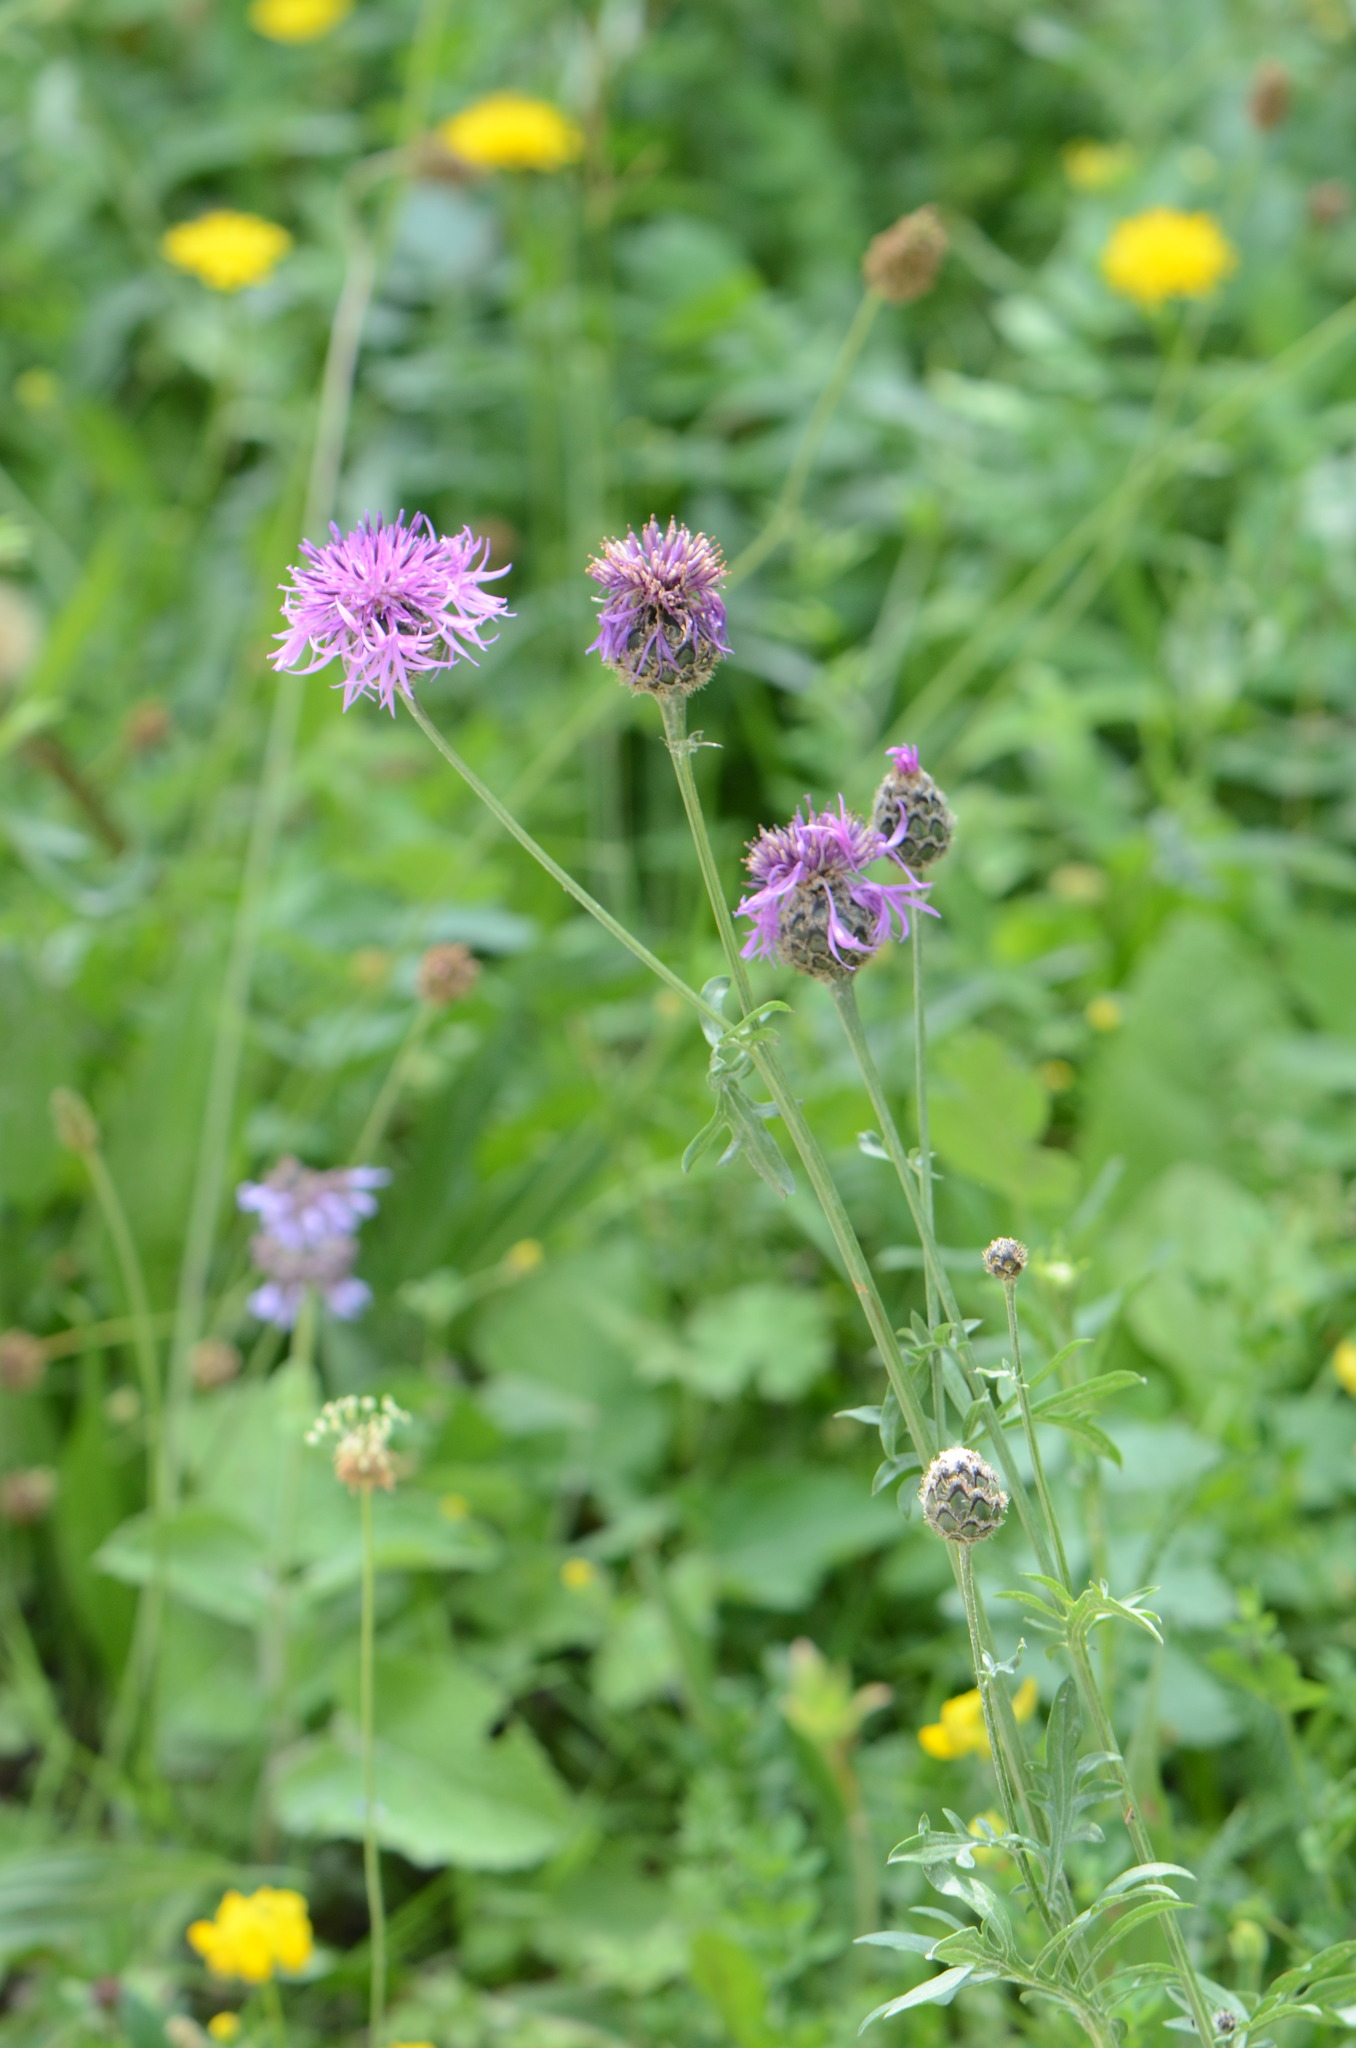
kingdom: Plantae
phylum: Tracheophyta
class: Magnoliopsida
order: Asterales
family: Asteraceae
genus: Centaurea
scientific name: Centaurea scabiosa
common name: Greater knapweed
